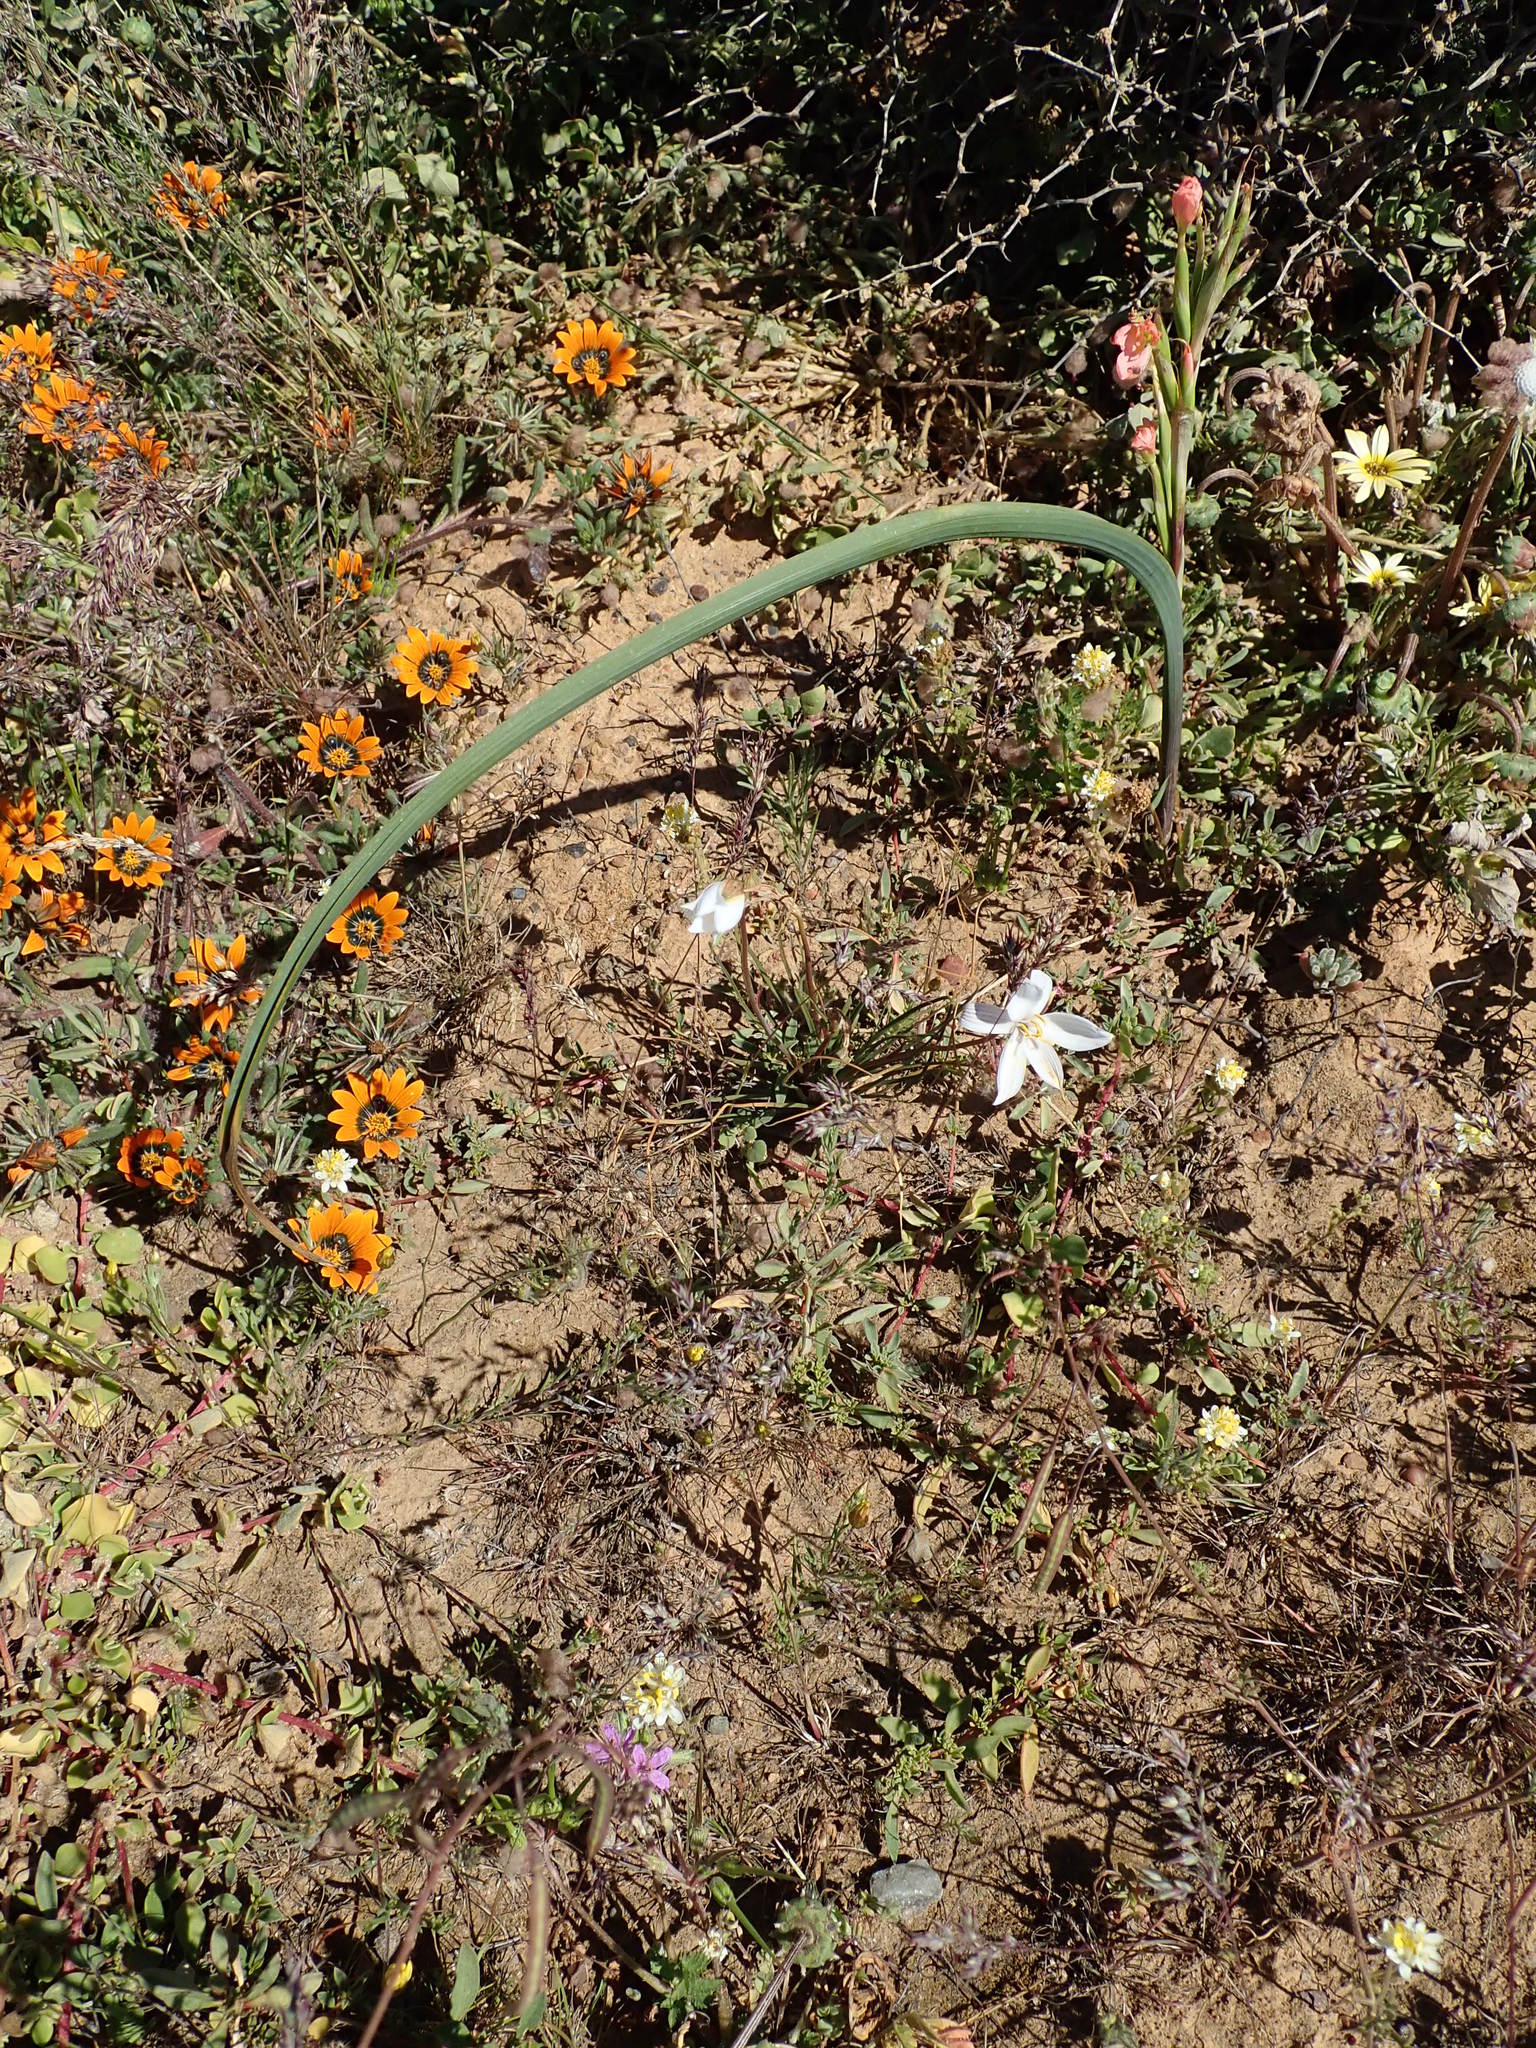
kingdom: Plantae
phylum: Tracheophyta
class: Liliopsida
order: Asparagales
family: Tecophilaeaceae
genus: Cyanella
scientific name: Cyanella alba
